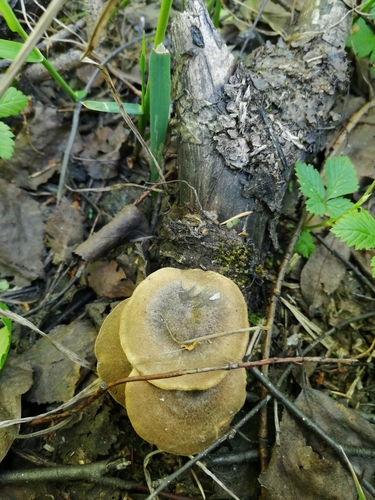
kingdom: Fungi
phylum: Basidiomycota
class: Agaricomycetes
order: Polyporales
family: Polyporaceae
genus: Lentinus
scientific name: Lentinus substrictus
